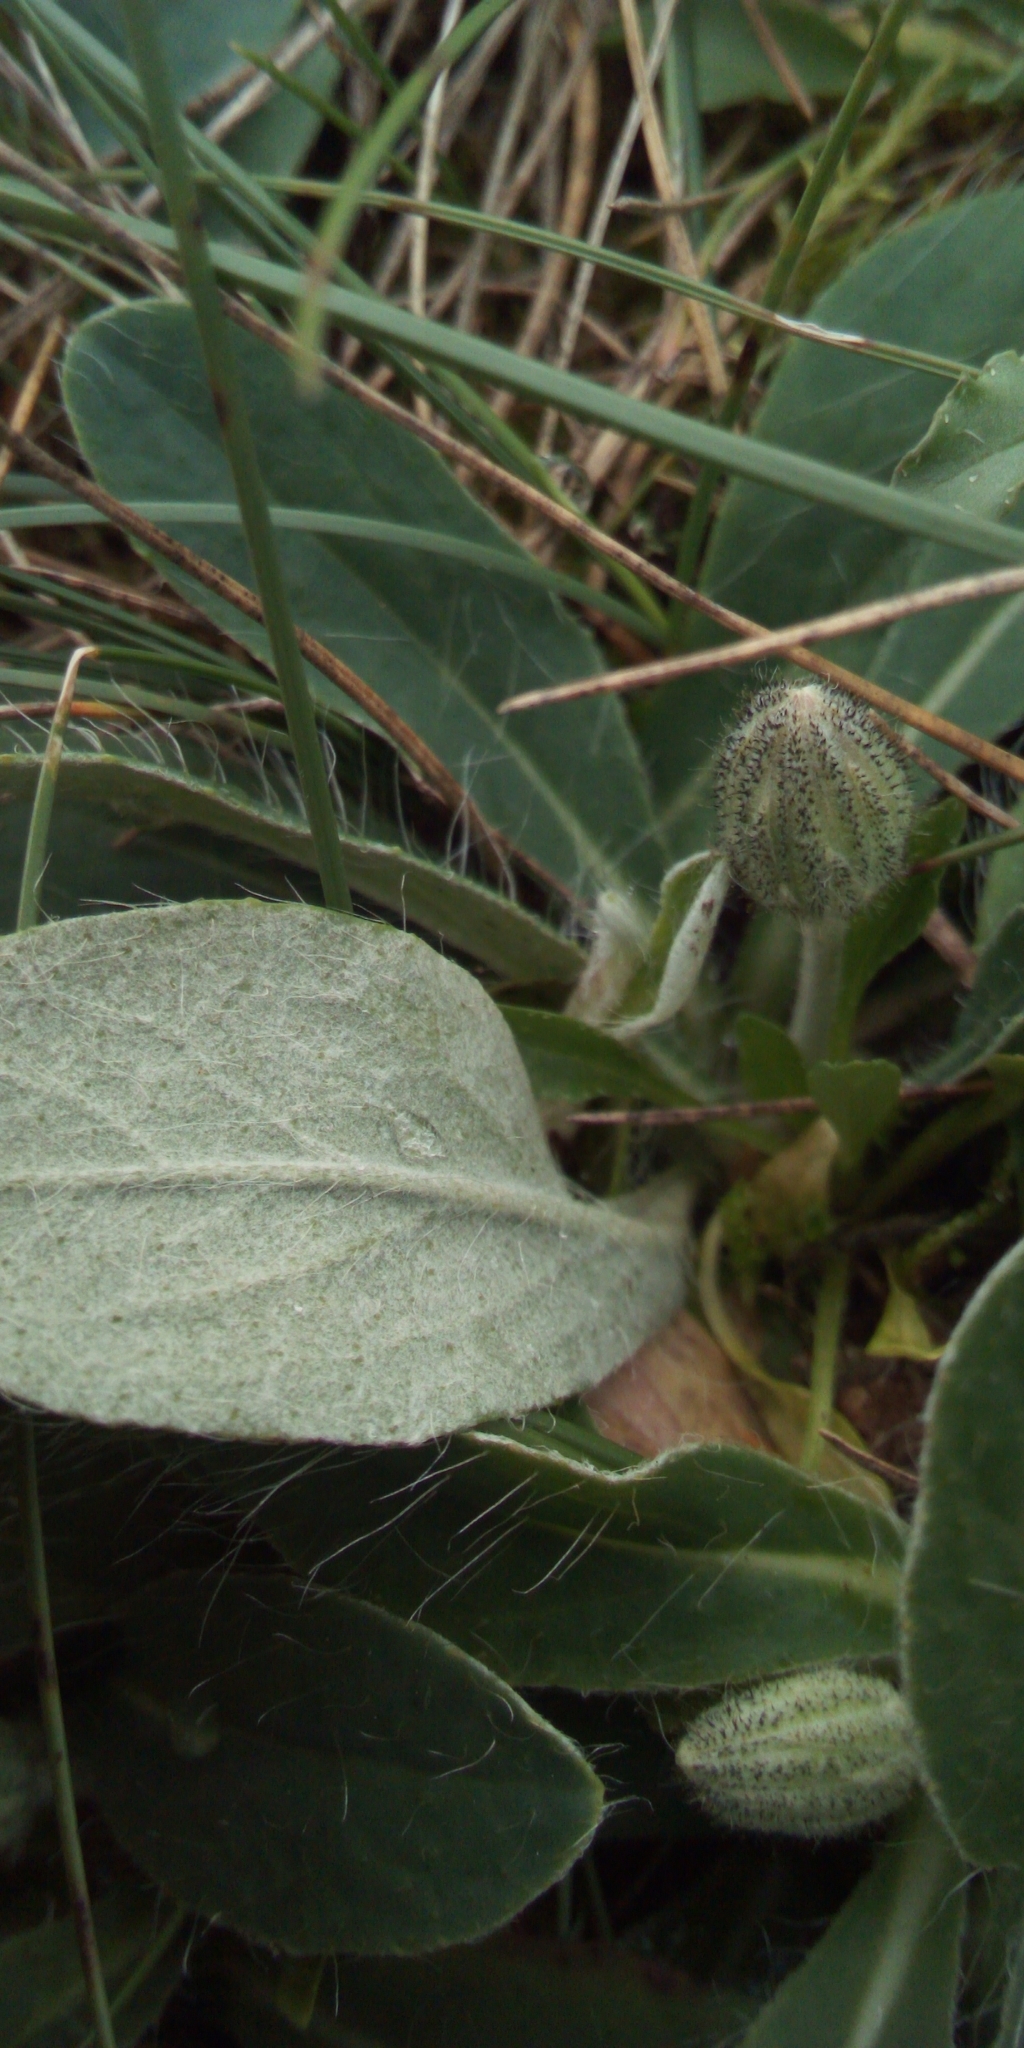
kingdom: Plantae
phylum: Tracheophyta
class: Magnoliopsida
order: Asterales
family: Asteraceae
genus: Pilosella
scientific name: Pilosella officinarum
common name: Mouse-ear hawkweed
